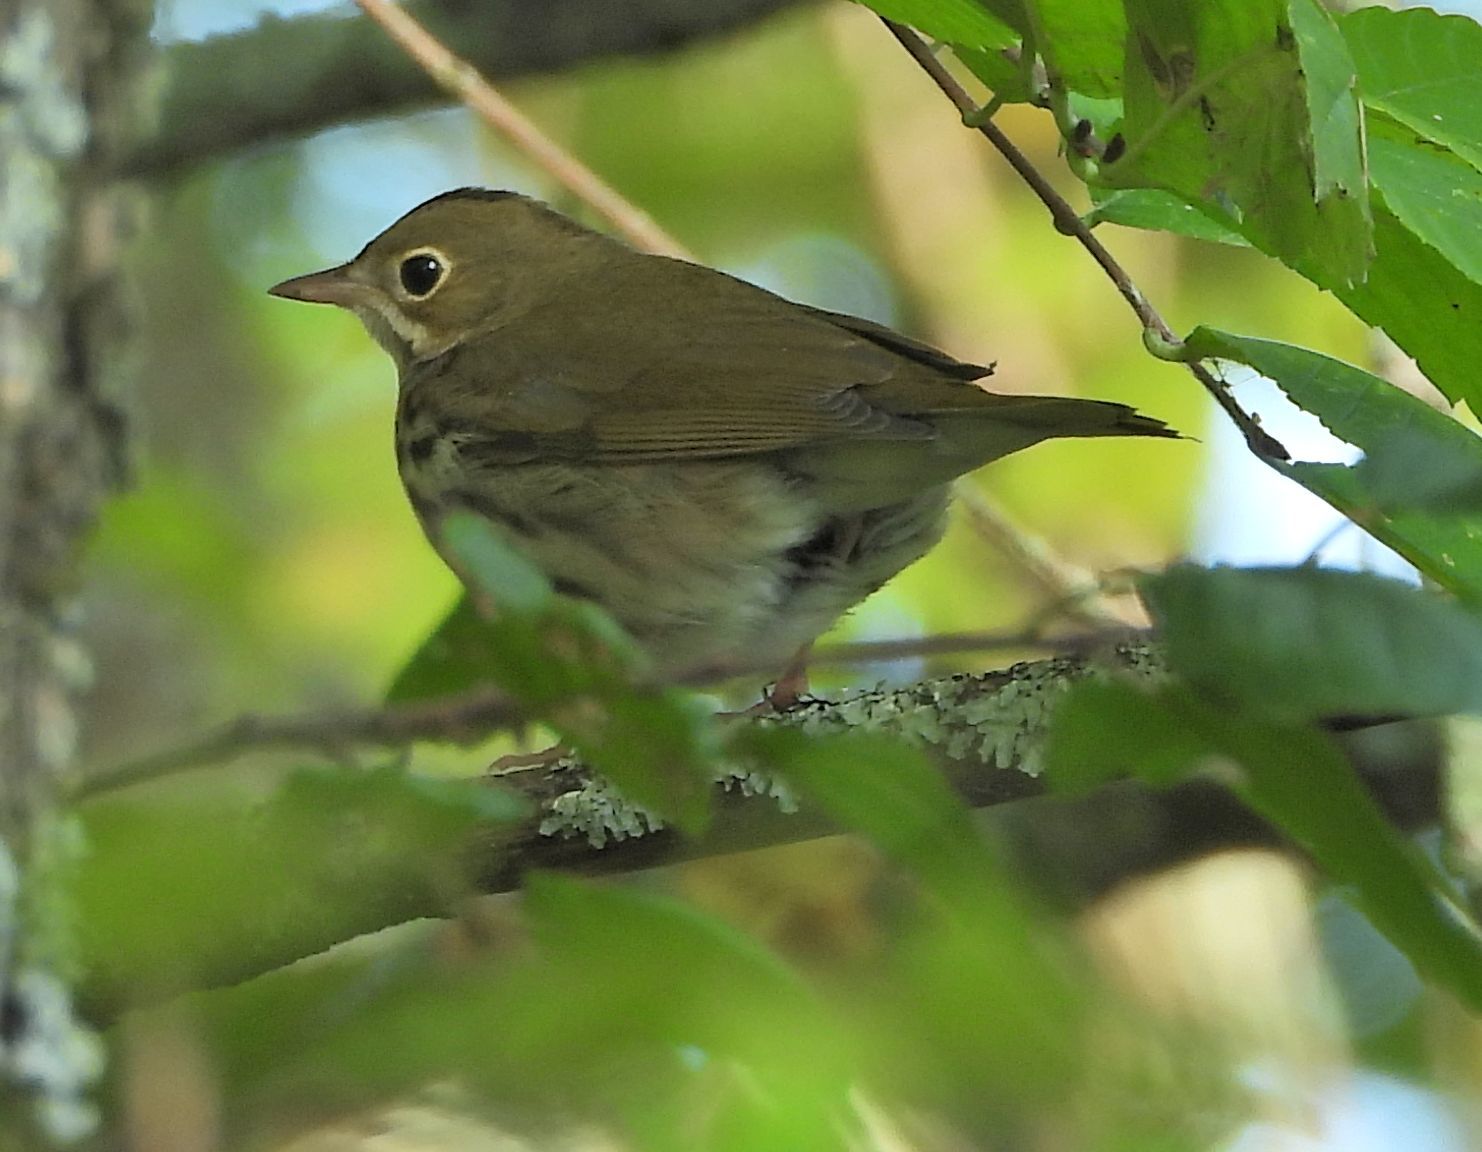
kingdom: Animalia
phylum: Chordata
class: Aves
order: Passeriformes
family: Parulidae
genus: Seiurus
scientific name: Seiurus aurocapilla
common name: Ovenbird
